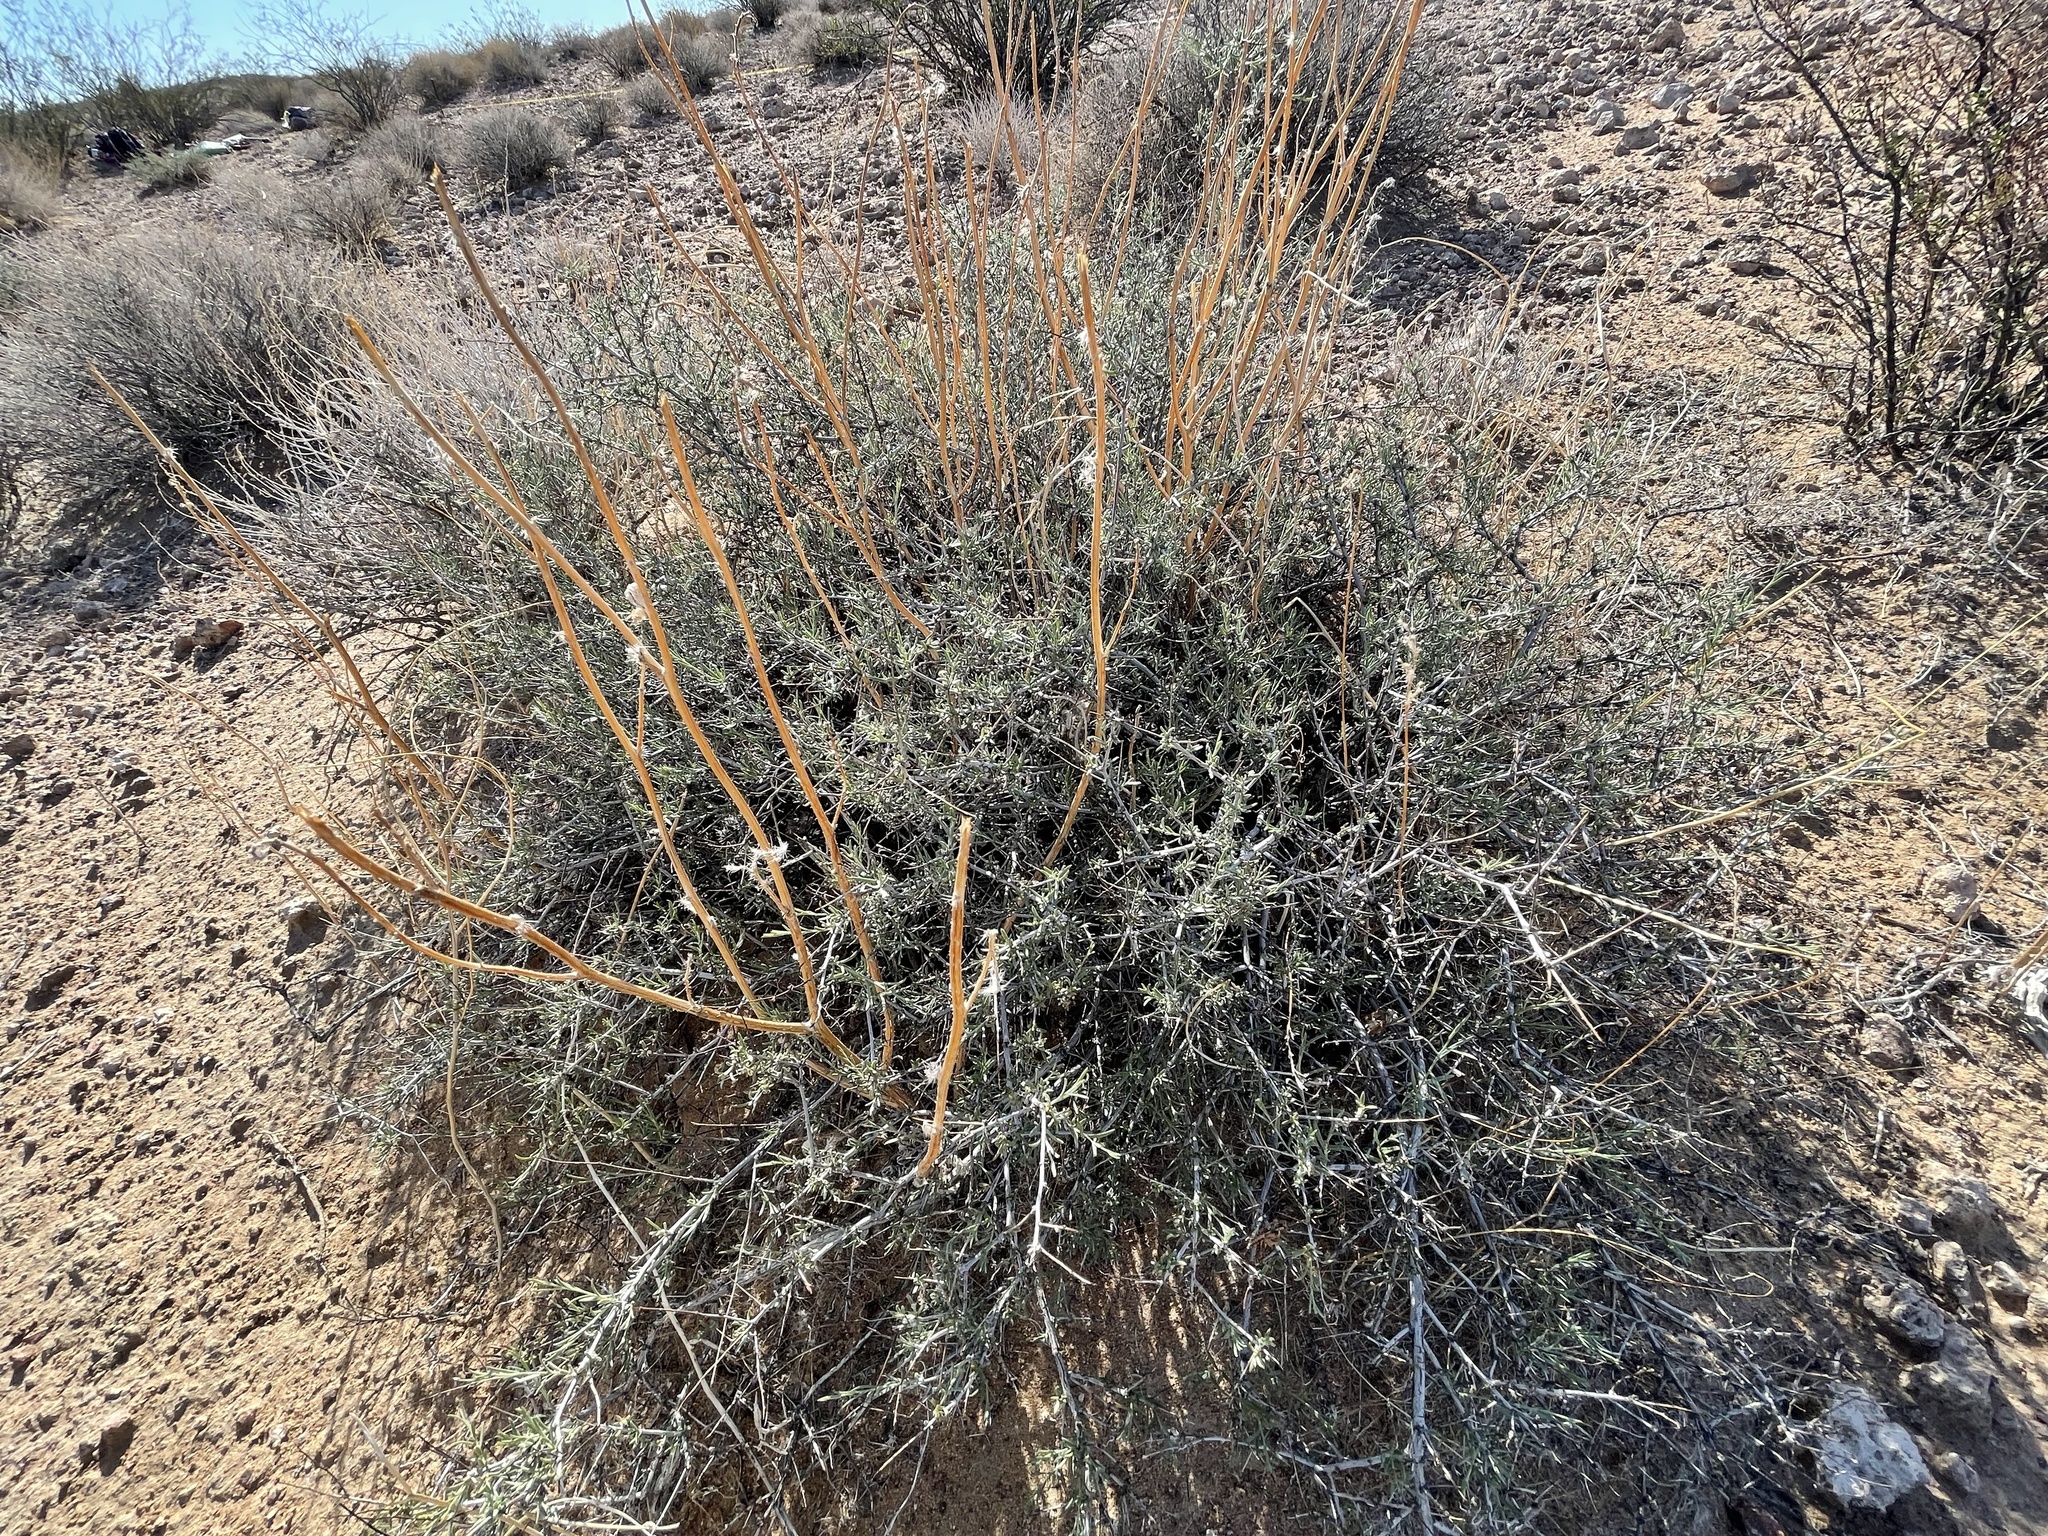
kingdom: Plantae
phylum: Tracheophyta
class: Magnoliopsida
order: Zygophyllales
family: Krameriaceae
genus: Krameria
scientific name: Krameria erecta
